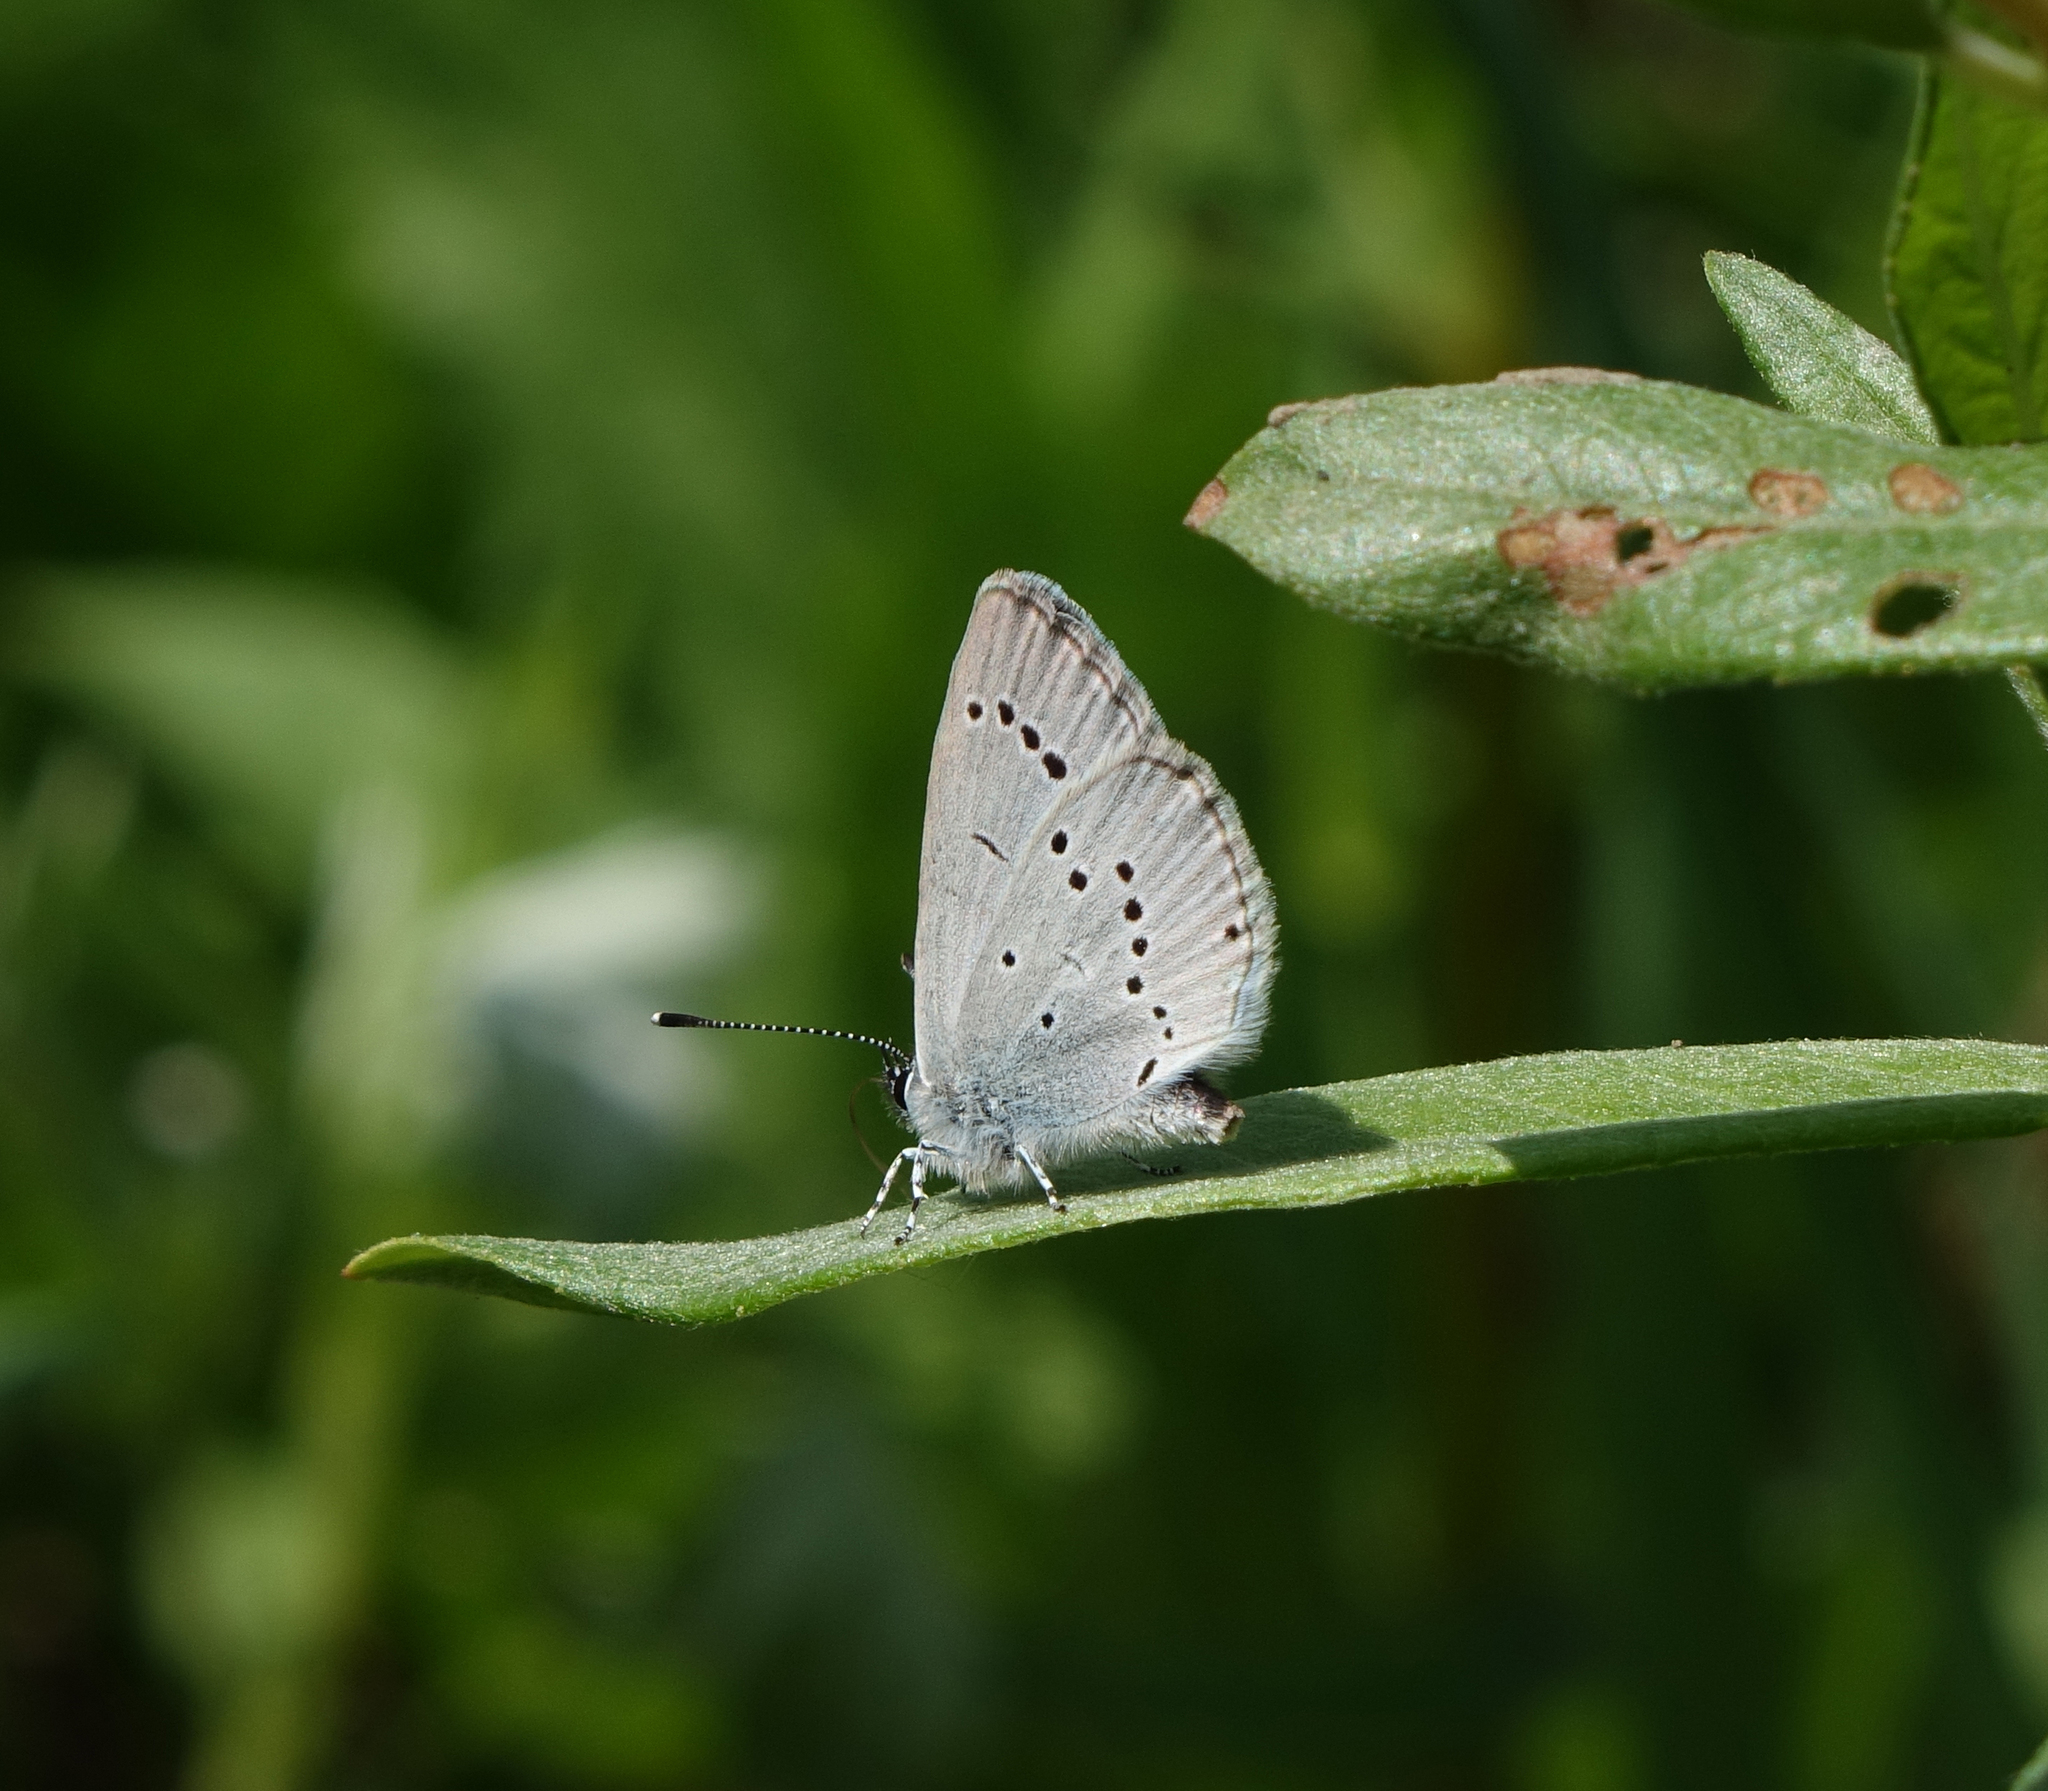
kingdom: Animalia
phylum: Arthropoda
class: Insecta
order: Lepidoptera
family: Lycaenidae
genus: Cupido
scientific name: Cupido minimus
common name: Small blue
